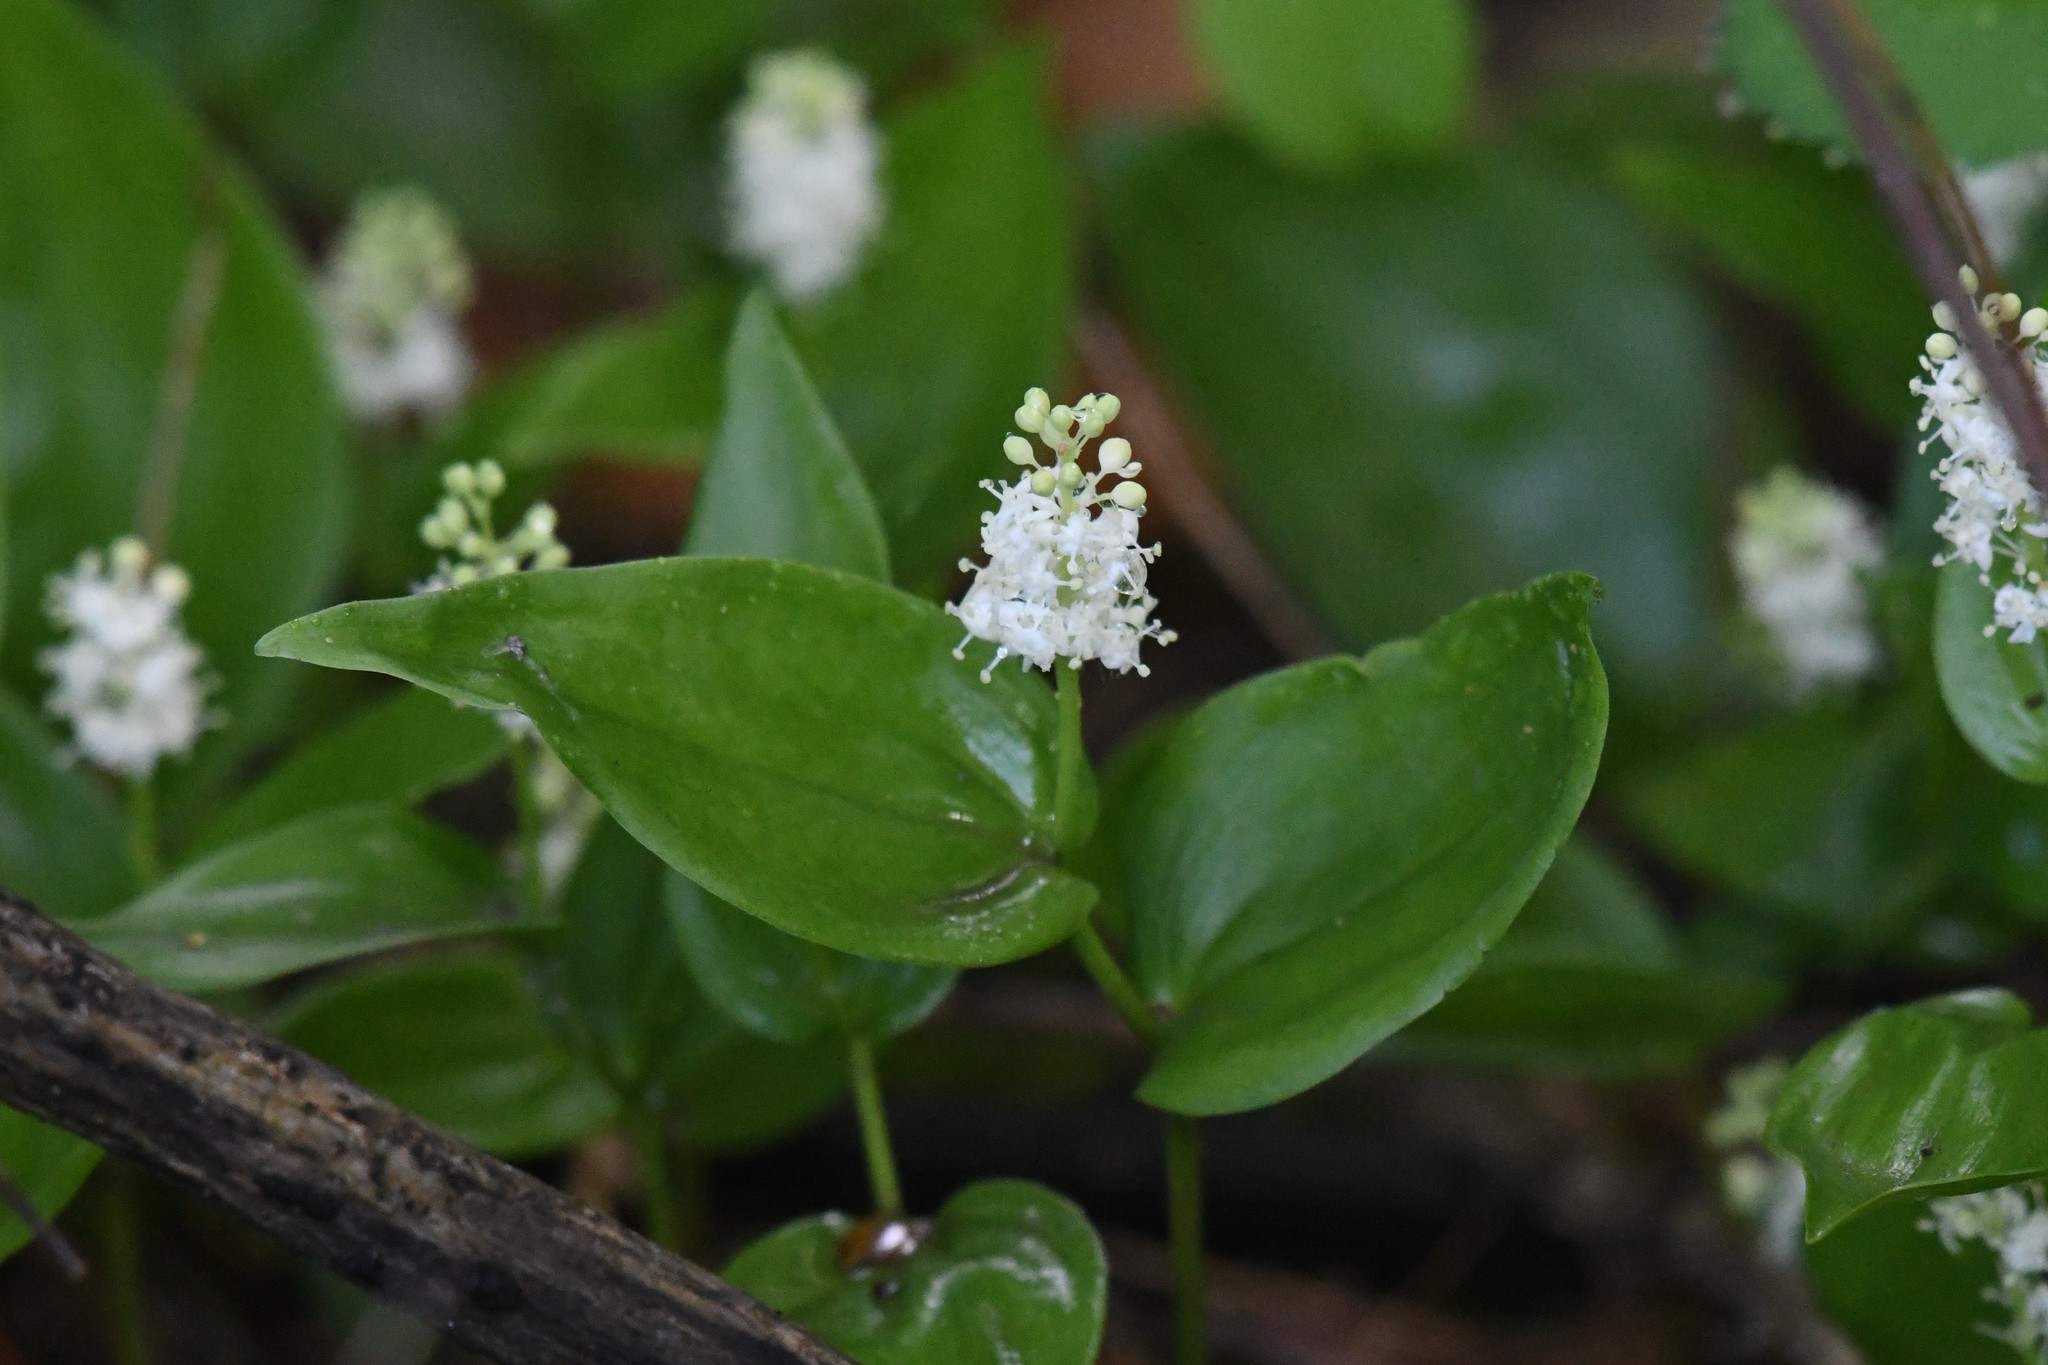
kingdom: Plantae
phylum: Tracheophyta
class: Liliopsida
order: Asparagales
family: Asparagaceae
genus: Maianthemum
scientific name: Maianthemum canadense
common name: False lily-of-the-valley
